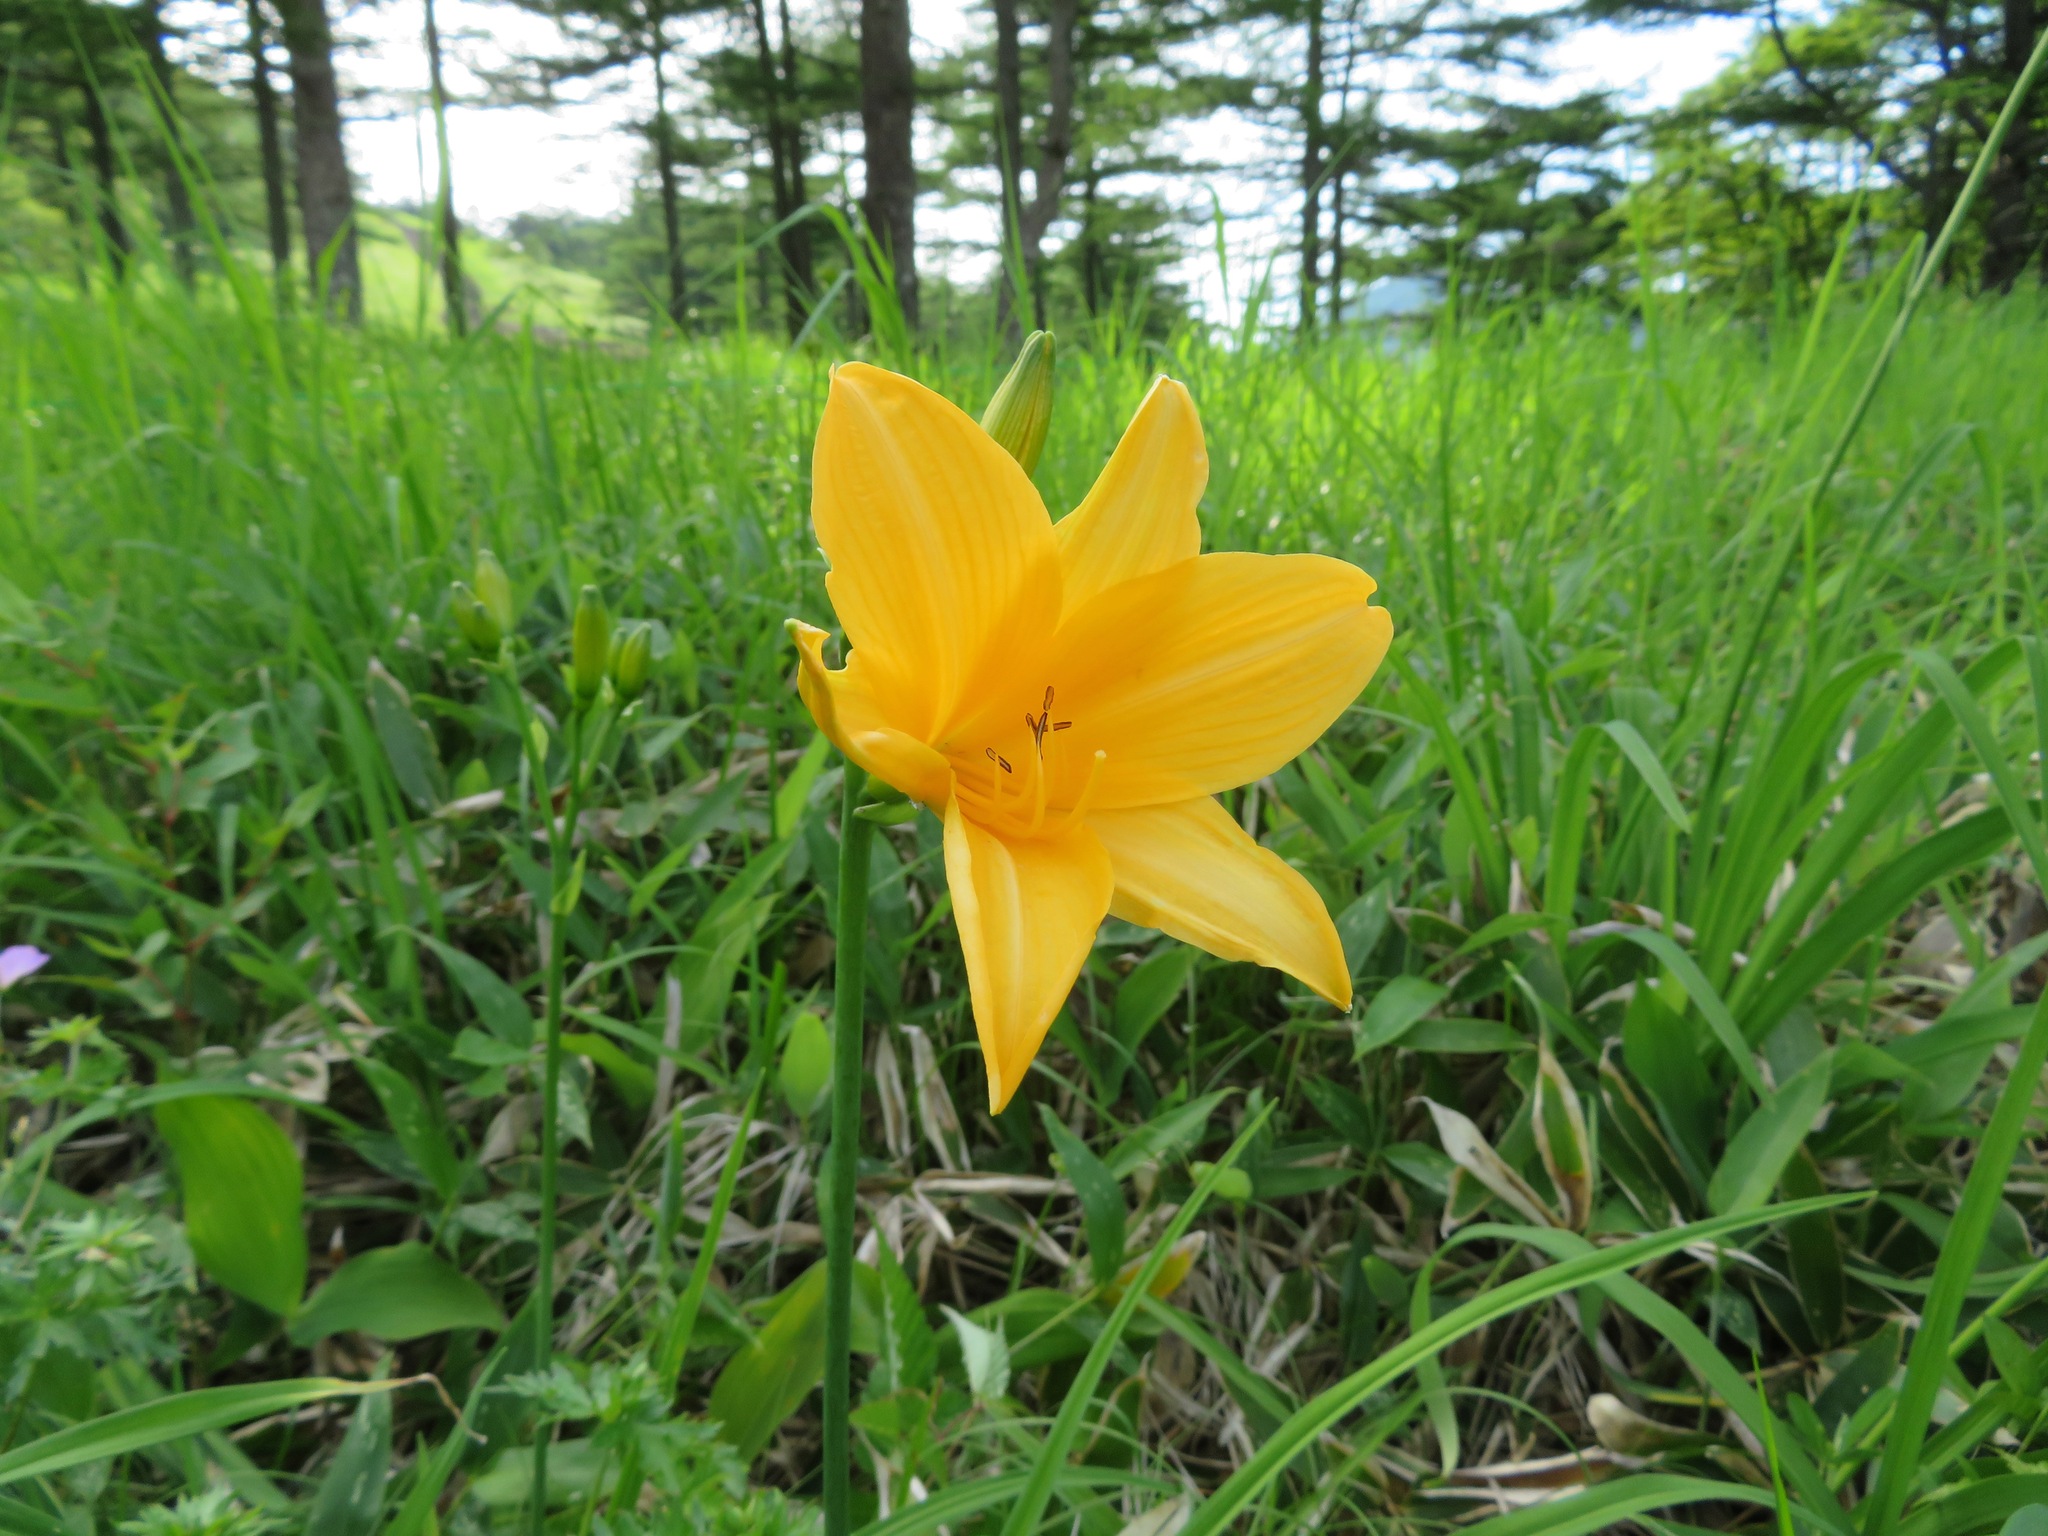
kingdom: Plantae
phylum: Tracheophyta
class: Liliopsida
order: Asparagales
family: Asphodelaceae
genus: Hemerocallis
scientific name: Hemerocallis middendorffii
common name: Amur day-lily
